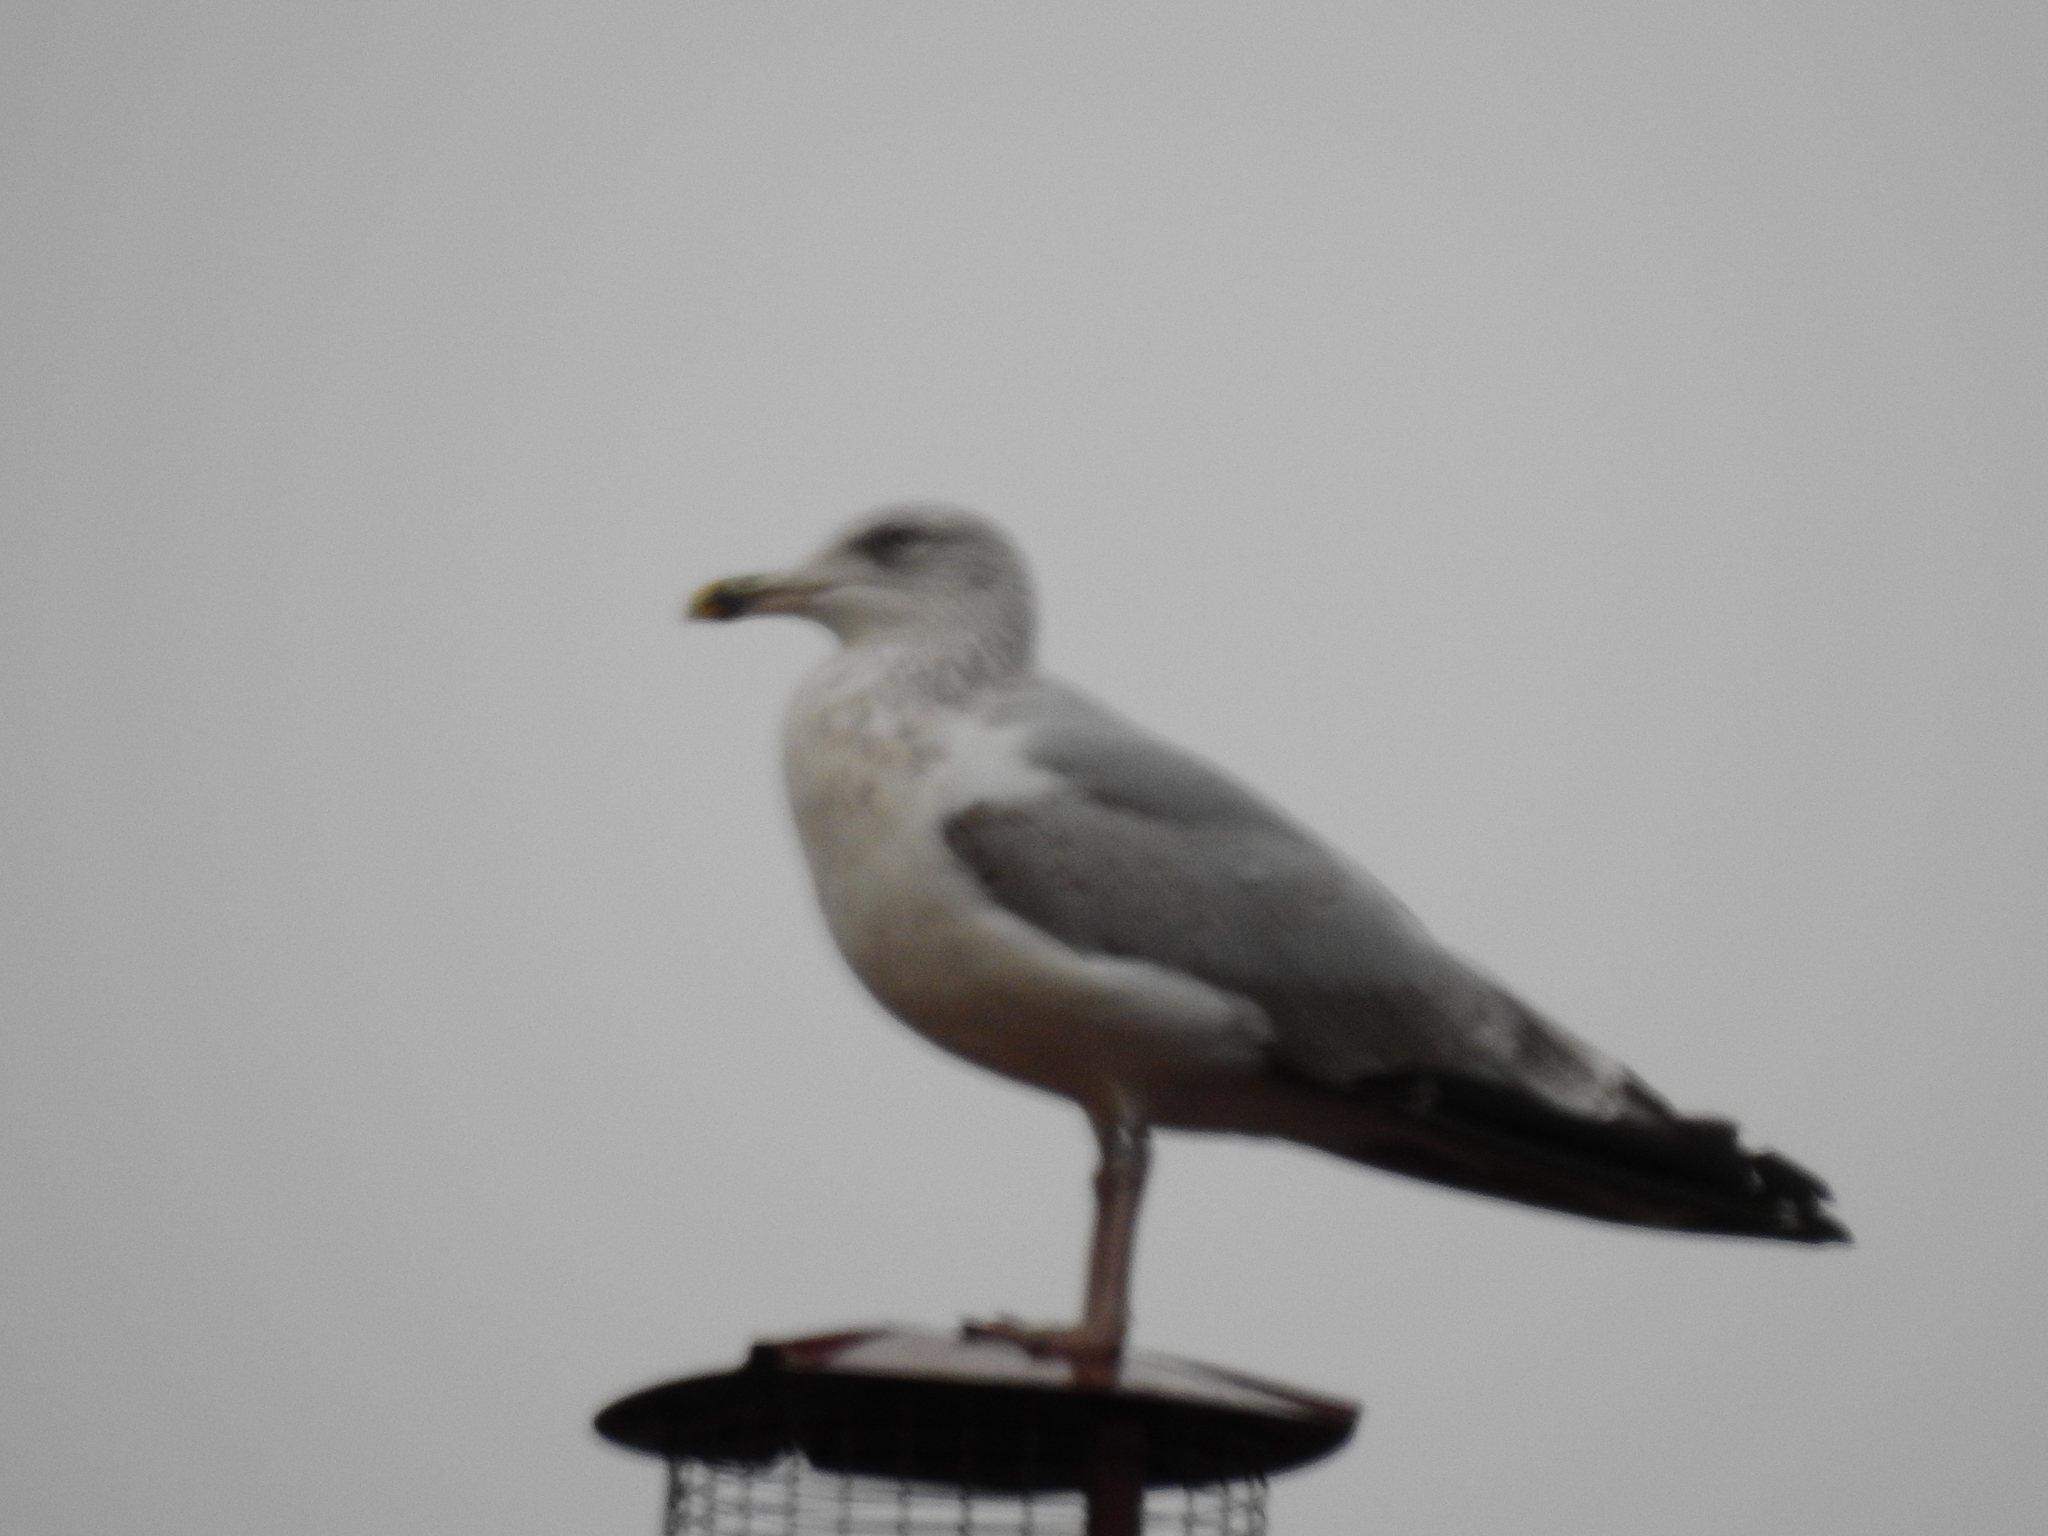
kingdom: Animalia
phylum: Chordata
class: Aves
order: Charadriiformes
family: Laridae
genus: Larus
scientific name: Larus argentatus
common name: Herring gull
